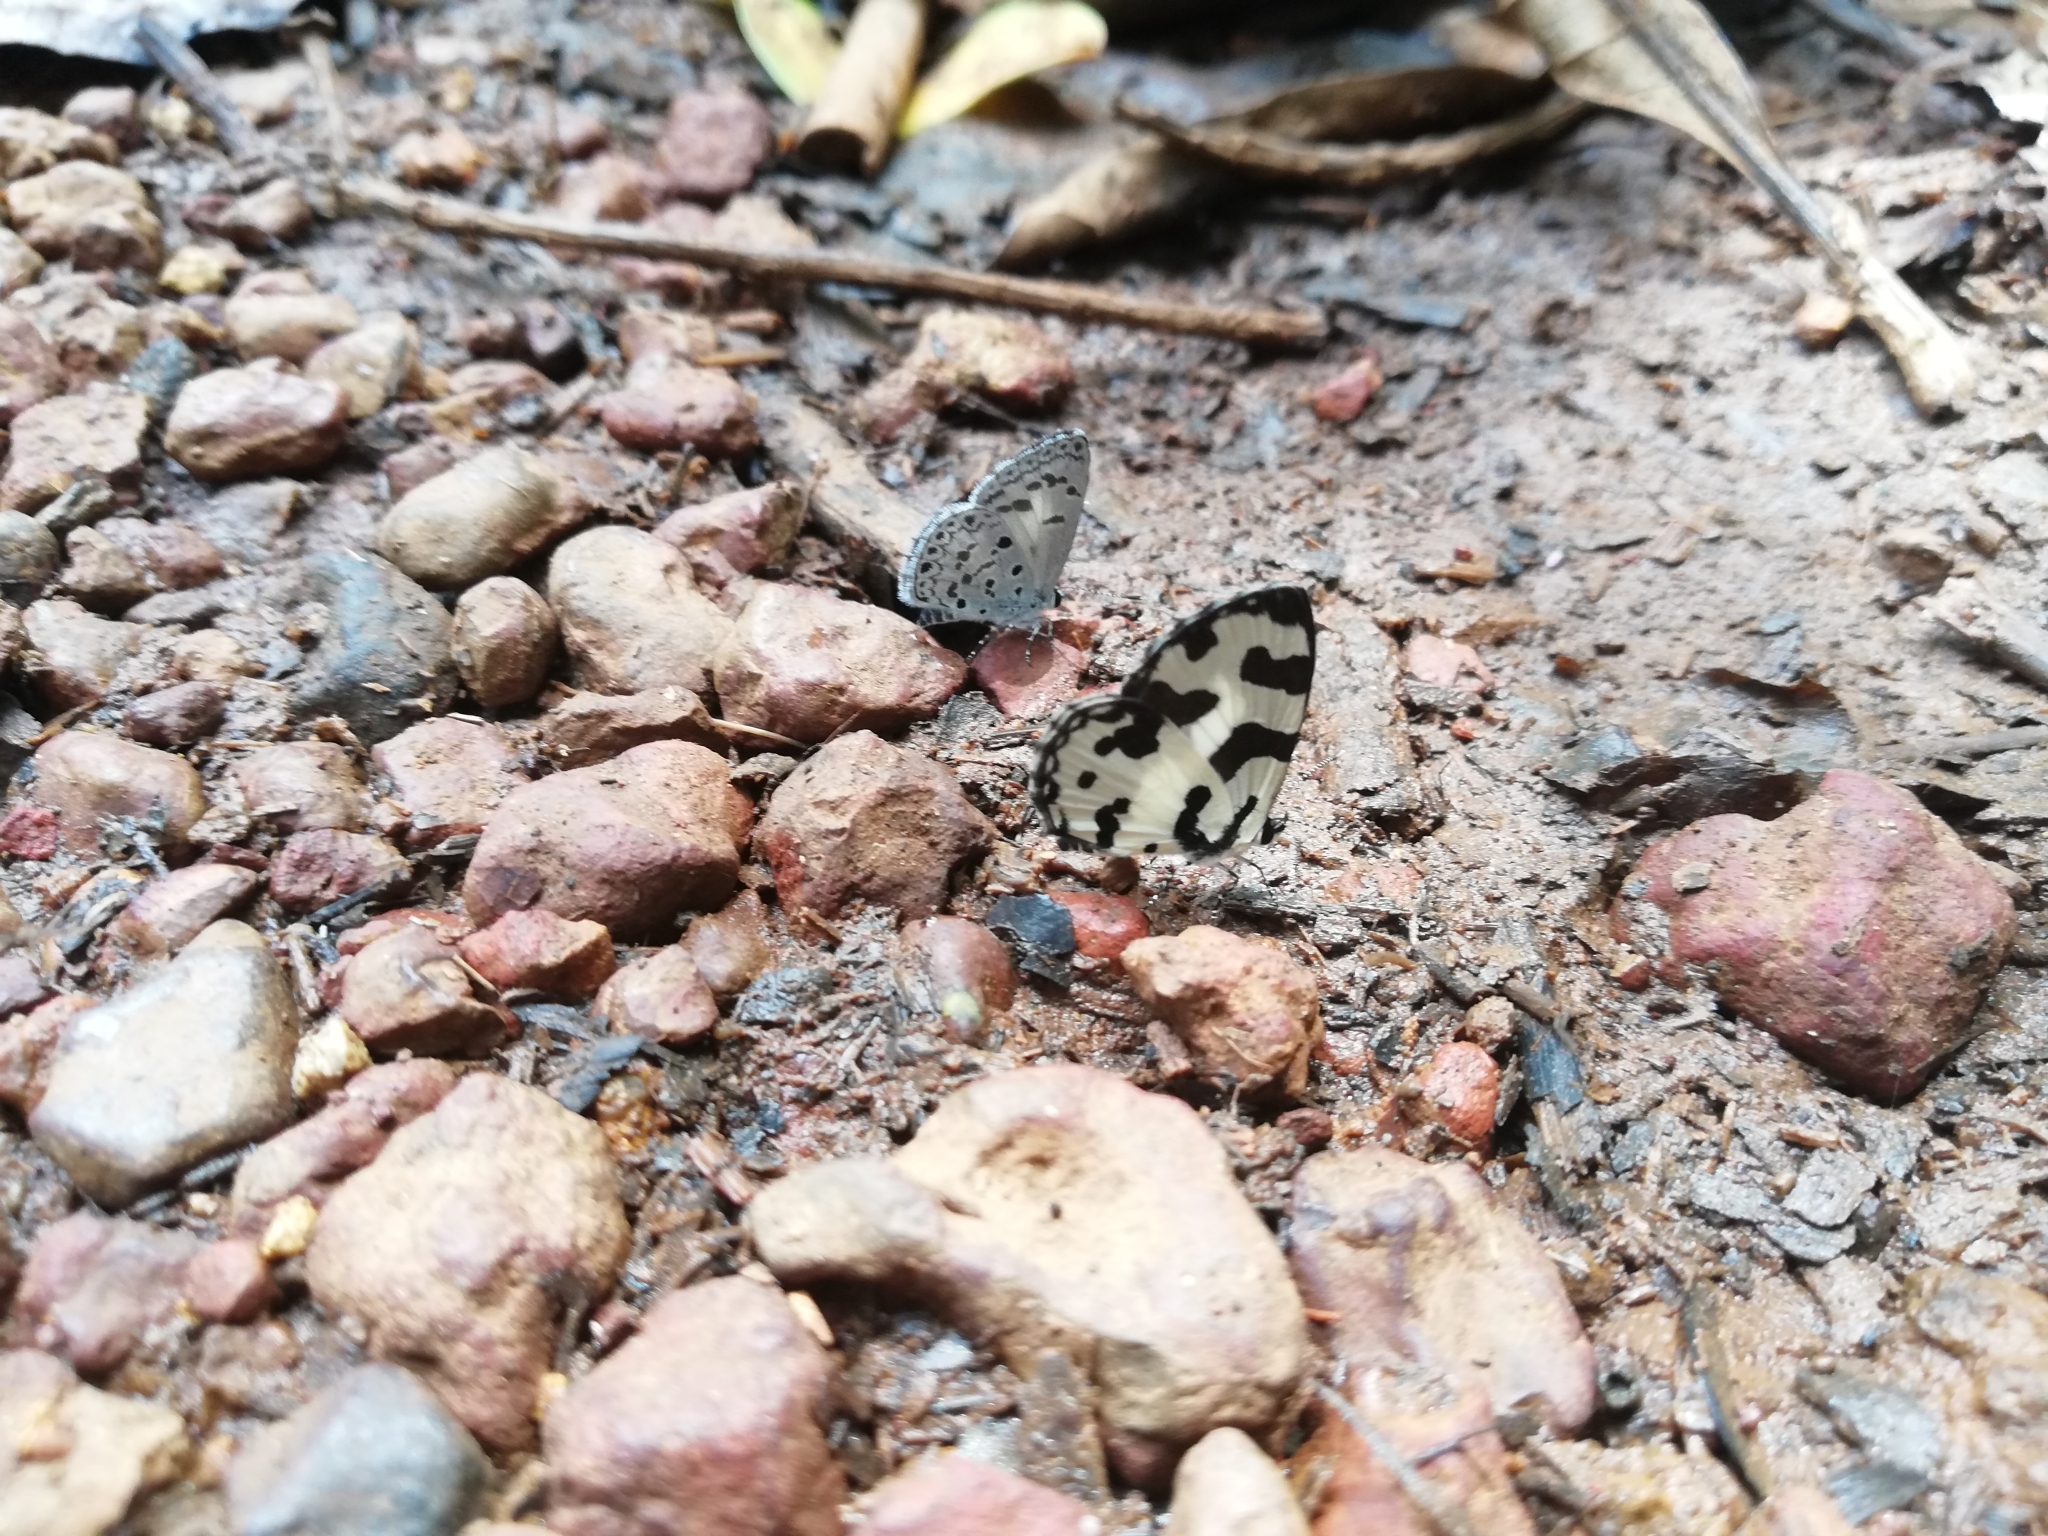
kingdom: Animalia
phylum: Arthropoda
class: Insecta
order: Lepidoptera
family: Lycaenidae
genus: Caleta
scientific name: Caleta decidia
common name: Angled pierrot
